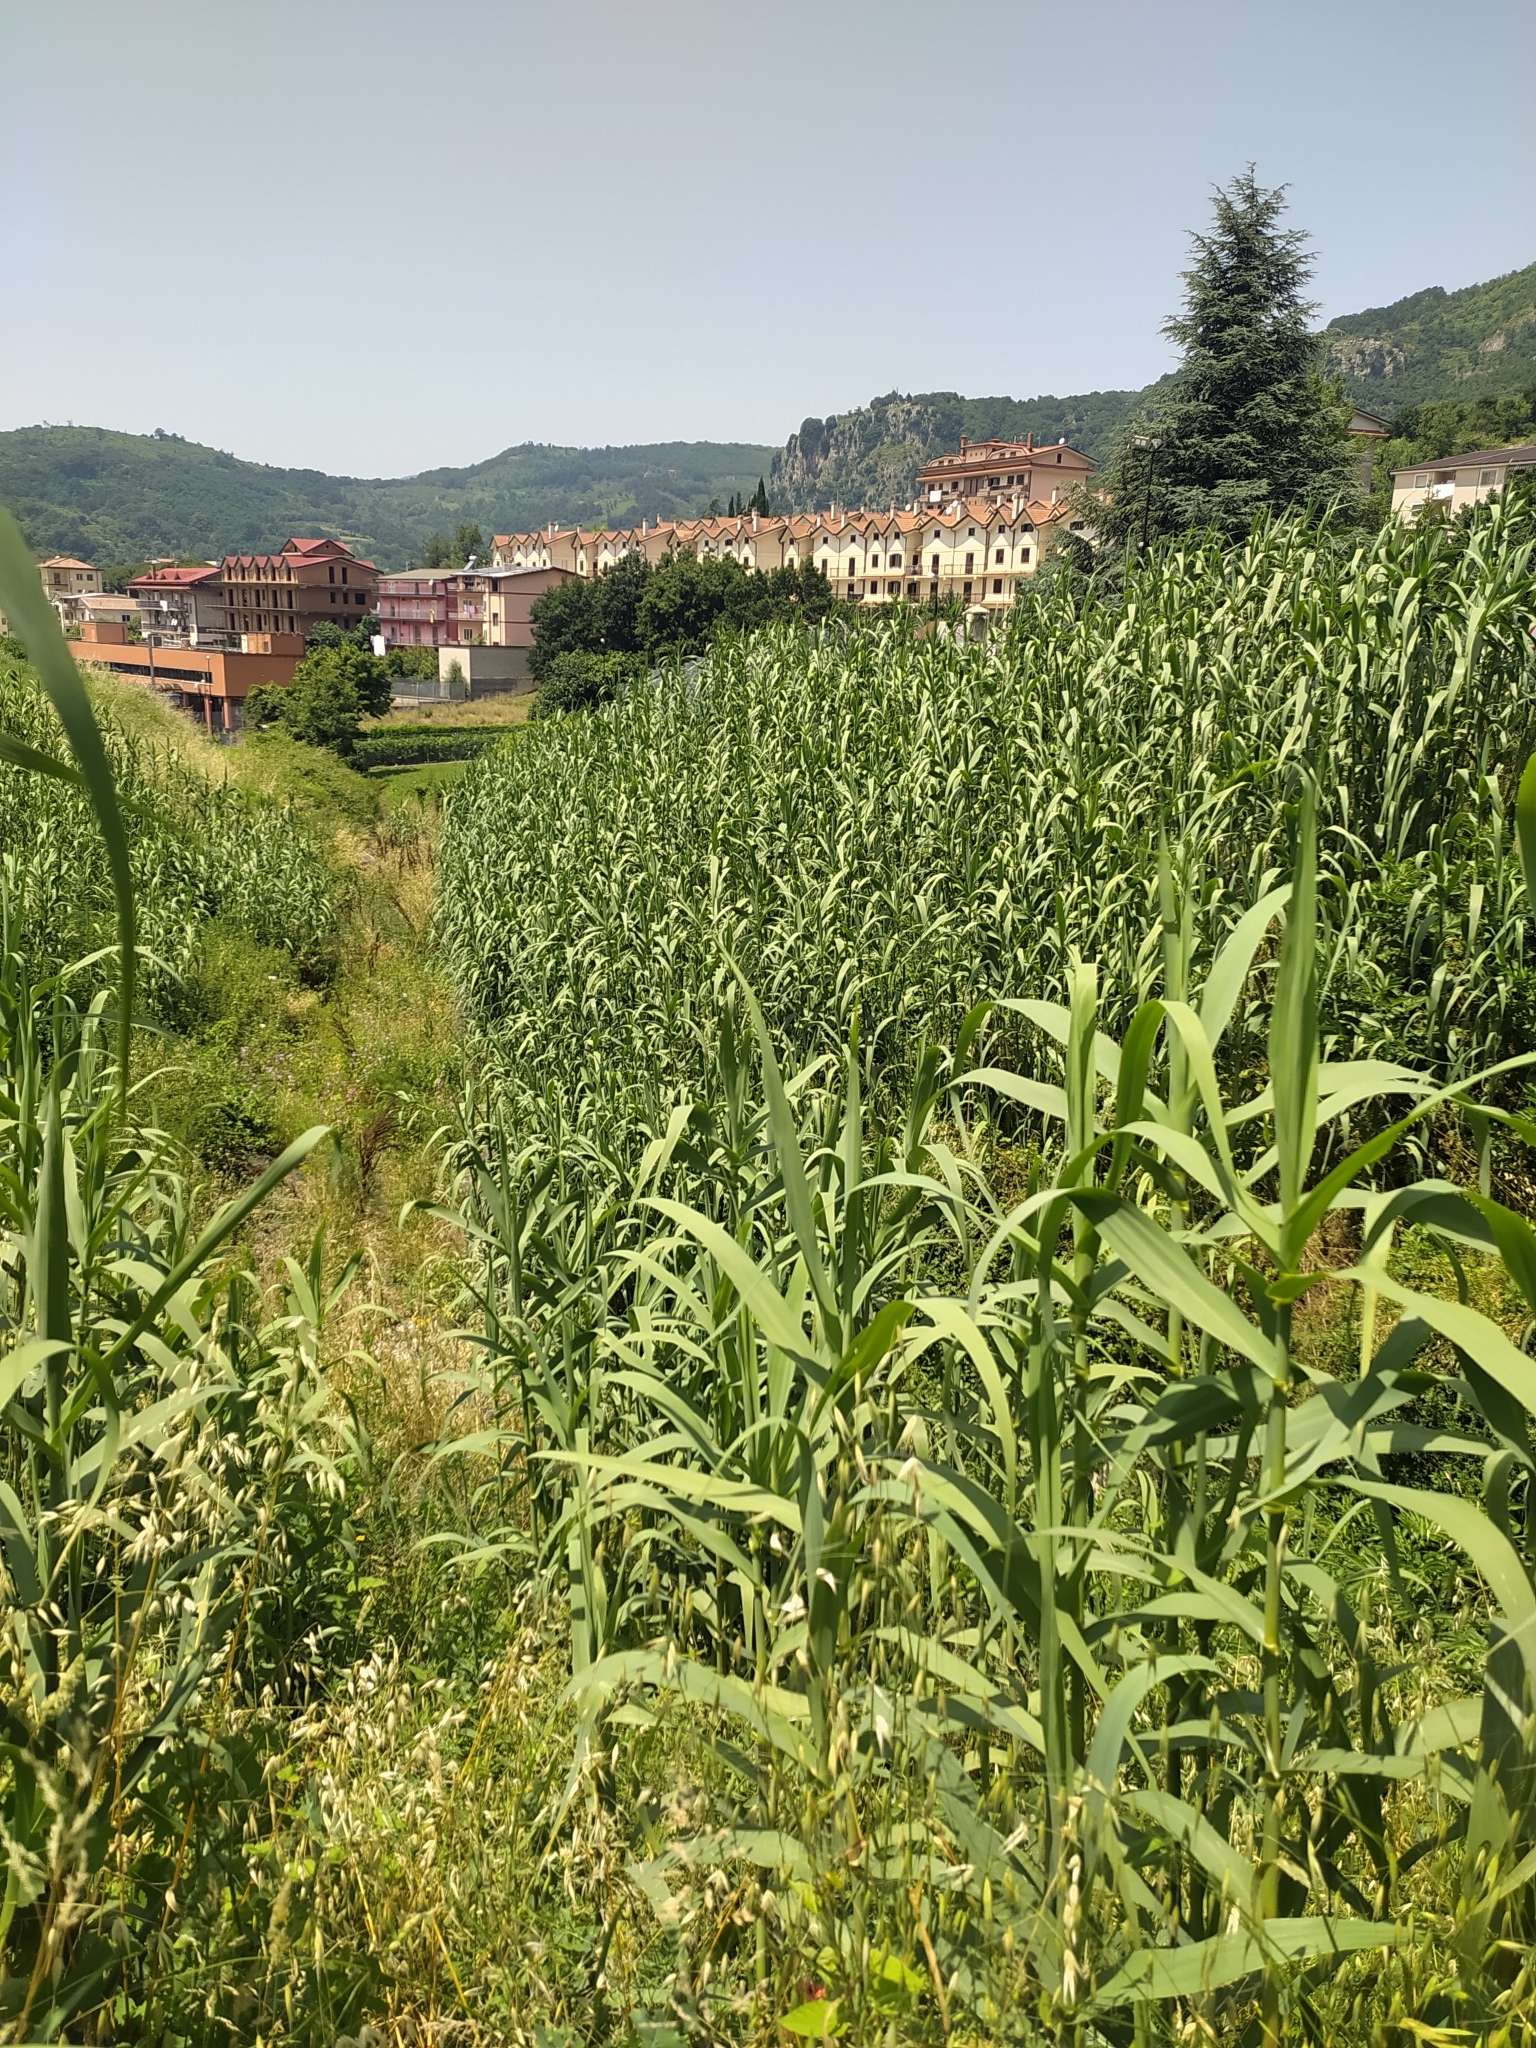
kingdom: Plantae
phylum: Tracheophyta
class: Liliopsida
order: Poales
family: Poaceae
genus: Arundo
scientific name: Arundo donax
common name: Giant reed
